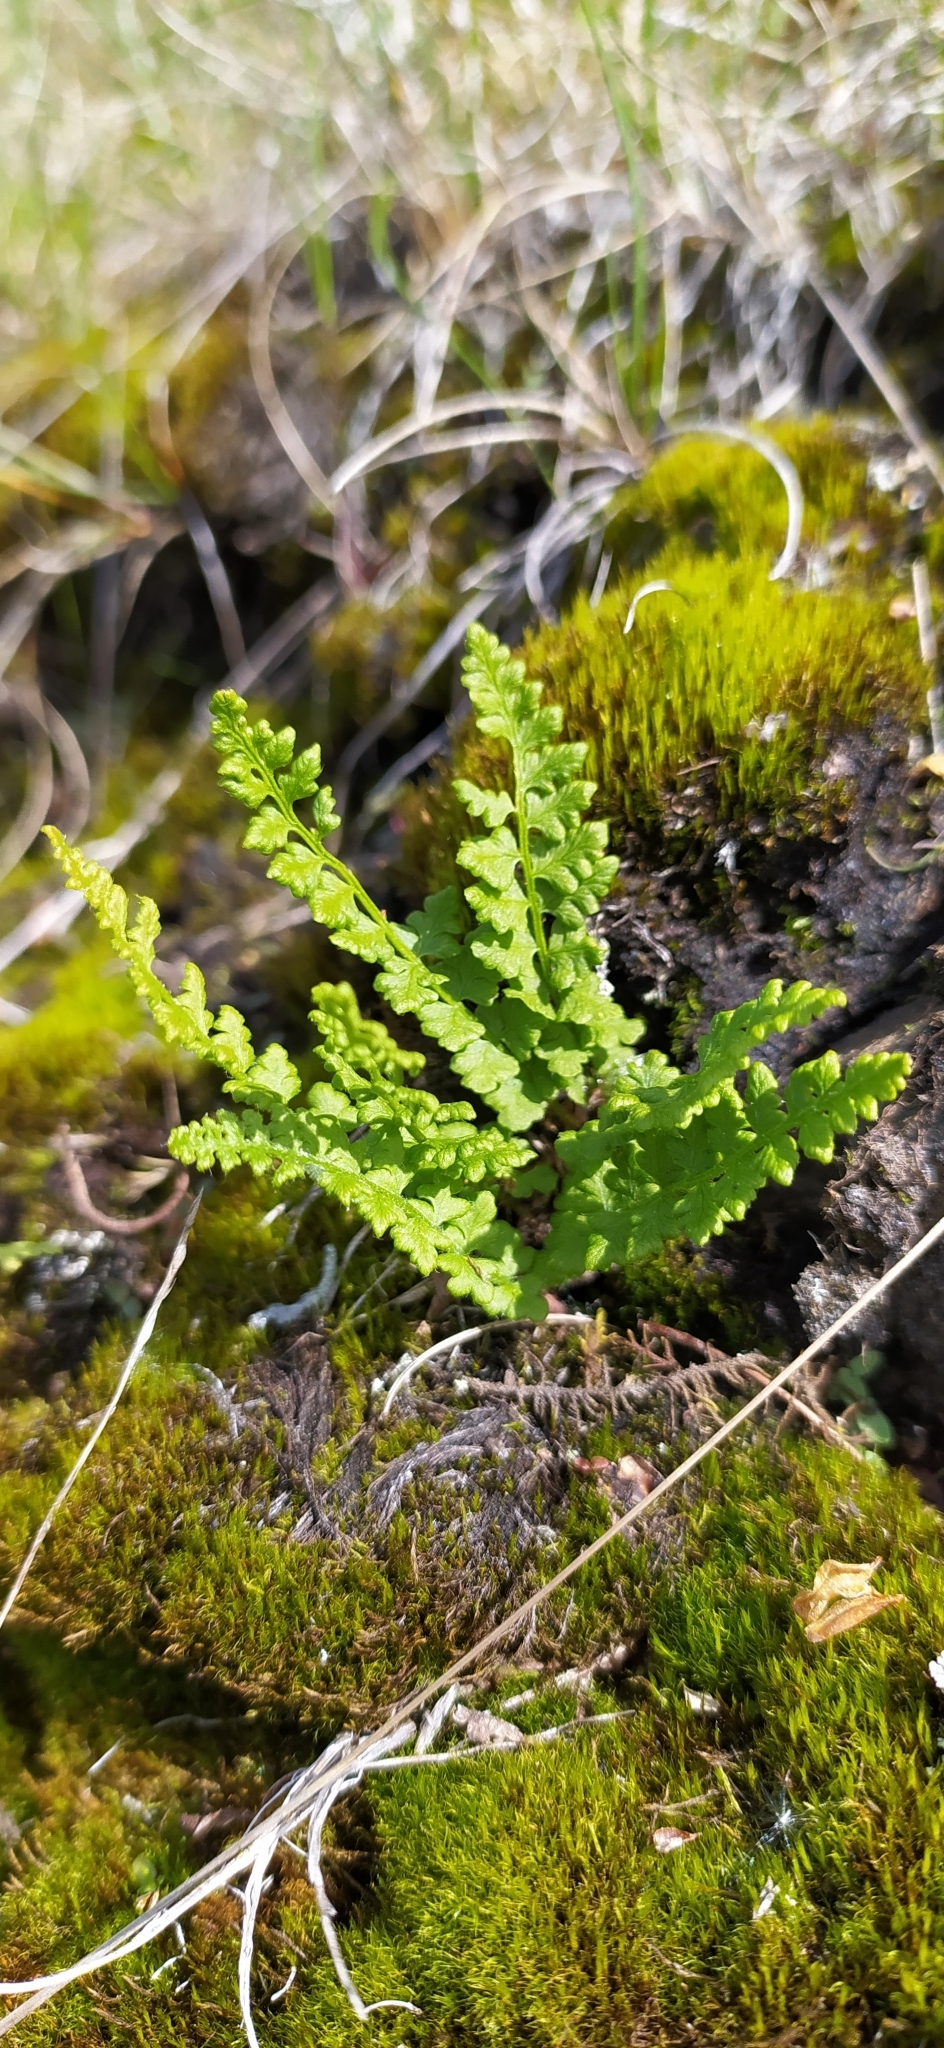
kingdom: Plantae
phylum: Tracheophyta
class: Polypodiopsida
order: Polypodiales
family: Woodsiaceae
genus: Woodsia
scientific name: Woodsia alpina
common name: Alpine woodsia
